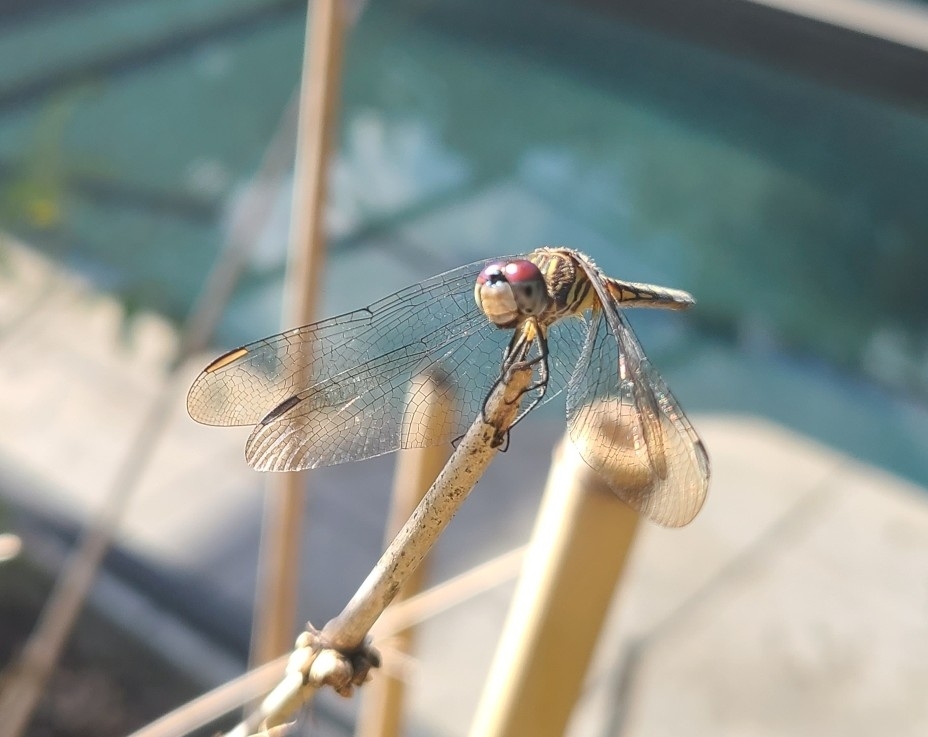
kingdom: Animalia
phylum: Arthropoda
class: Insecta
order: Odonata
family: Libellulidae
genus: Pachydiplax
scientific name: Pachydiplax longipennis
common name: Blue dasher
